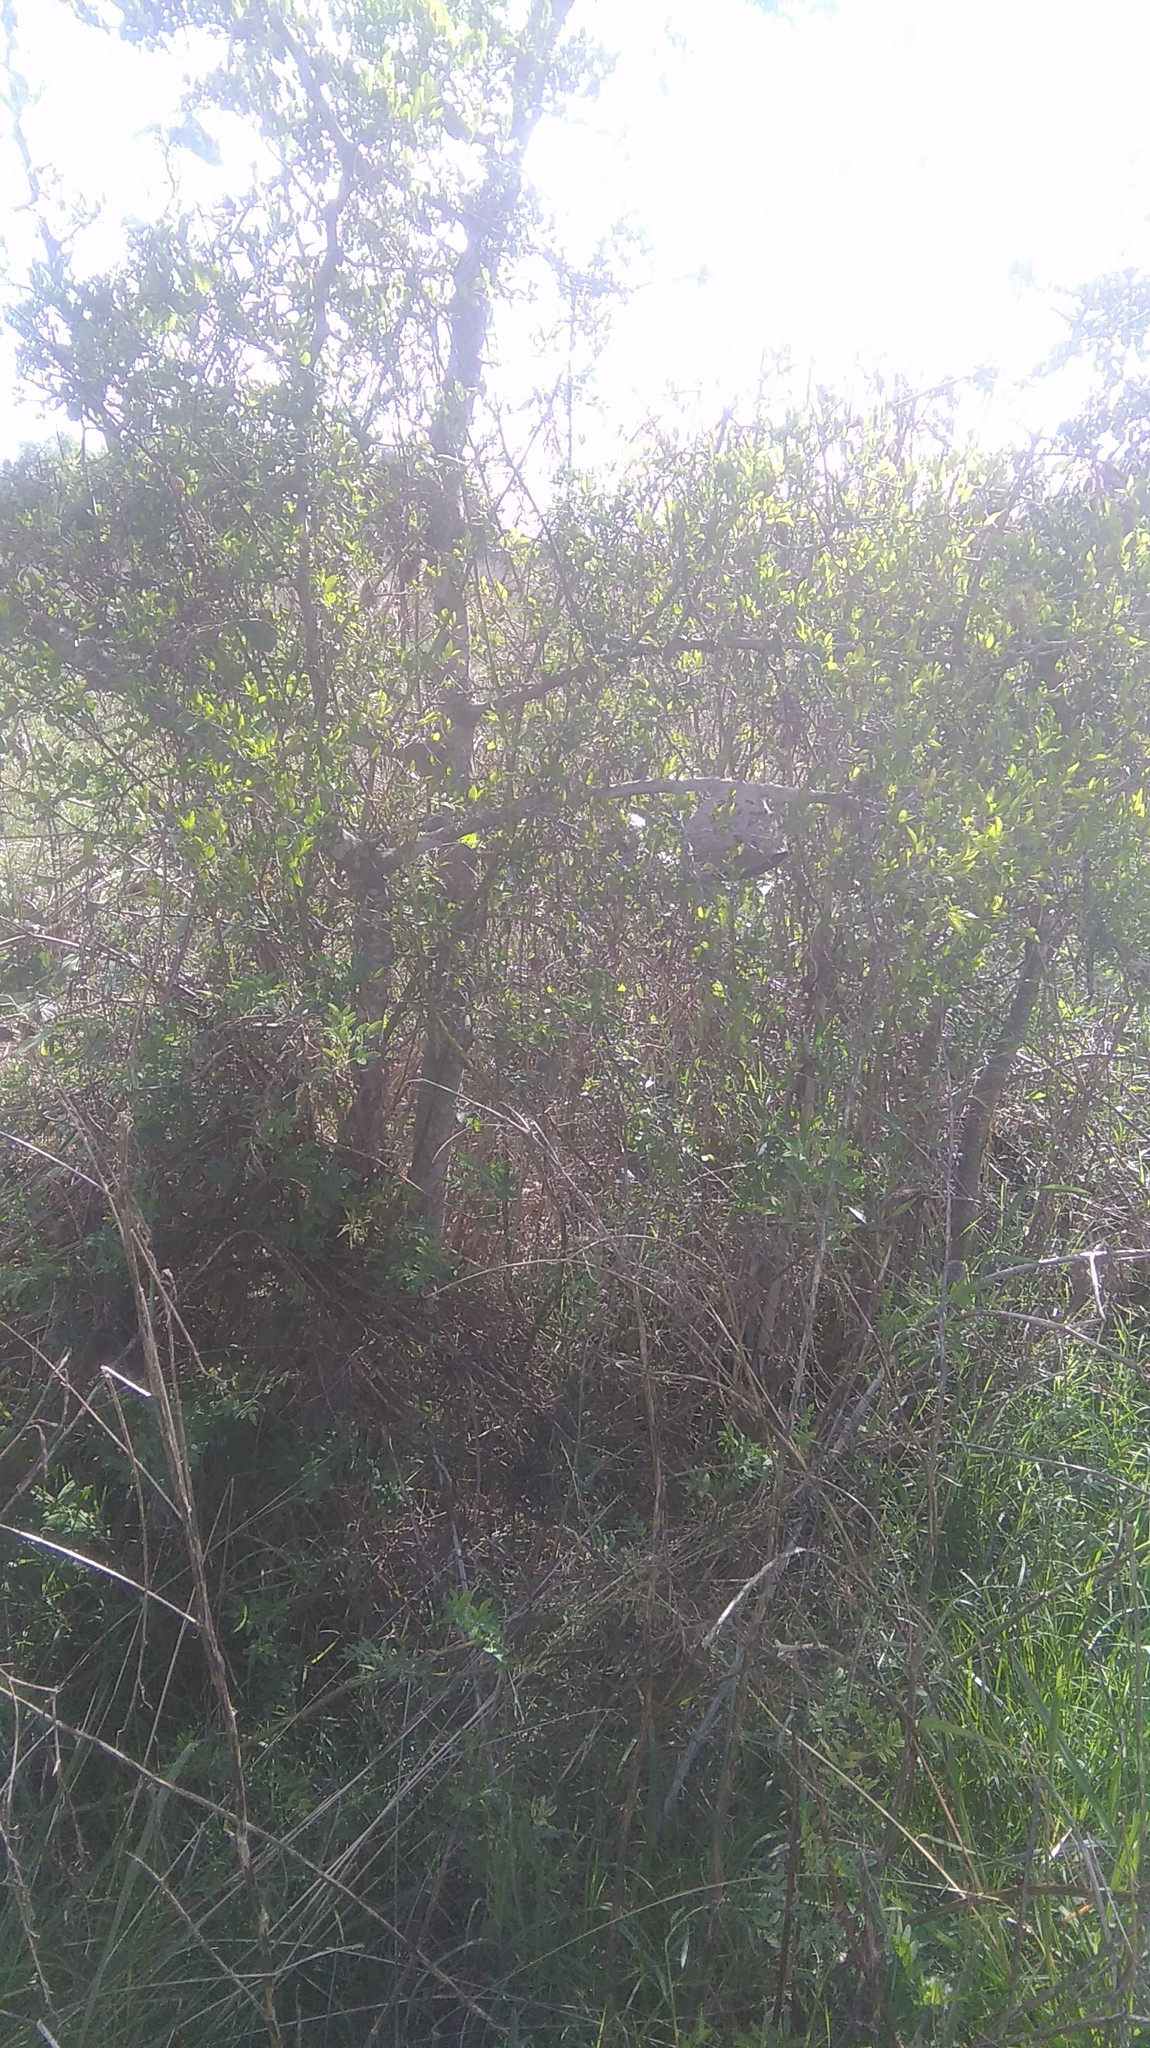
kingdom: Plantae
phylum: Tracheophyta
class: Magnoliopsida
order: Rosales
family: Cannabaceae
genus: Celtis
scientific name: Celtis tala
